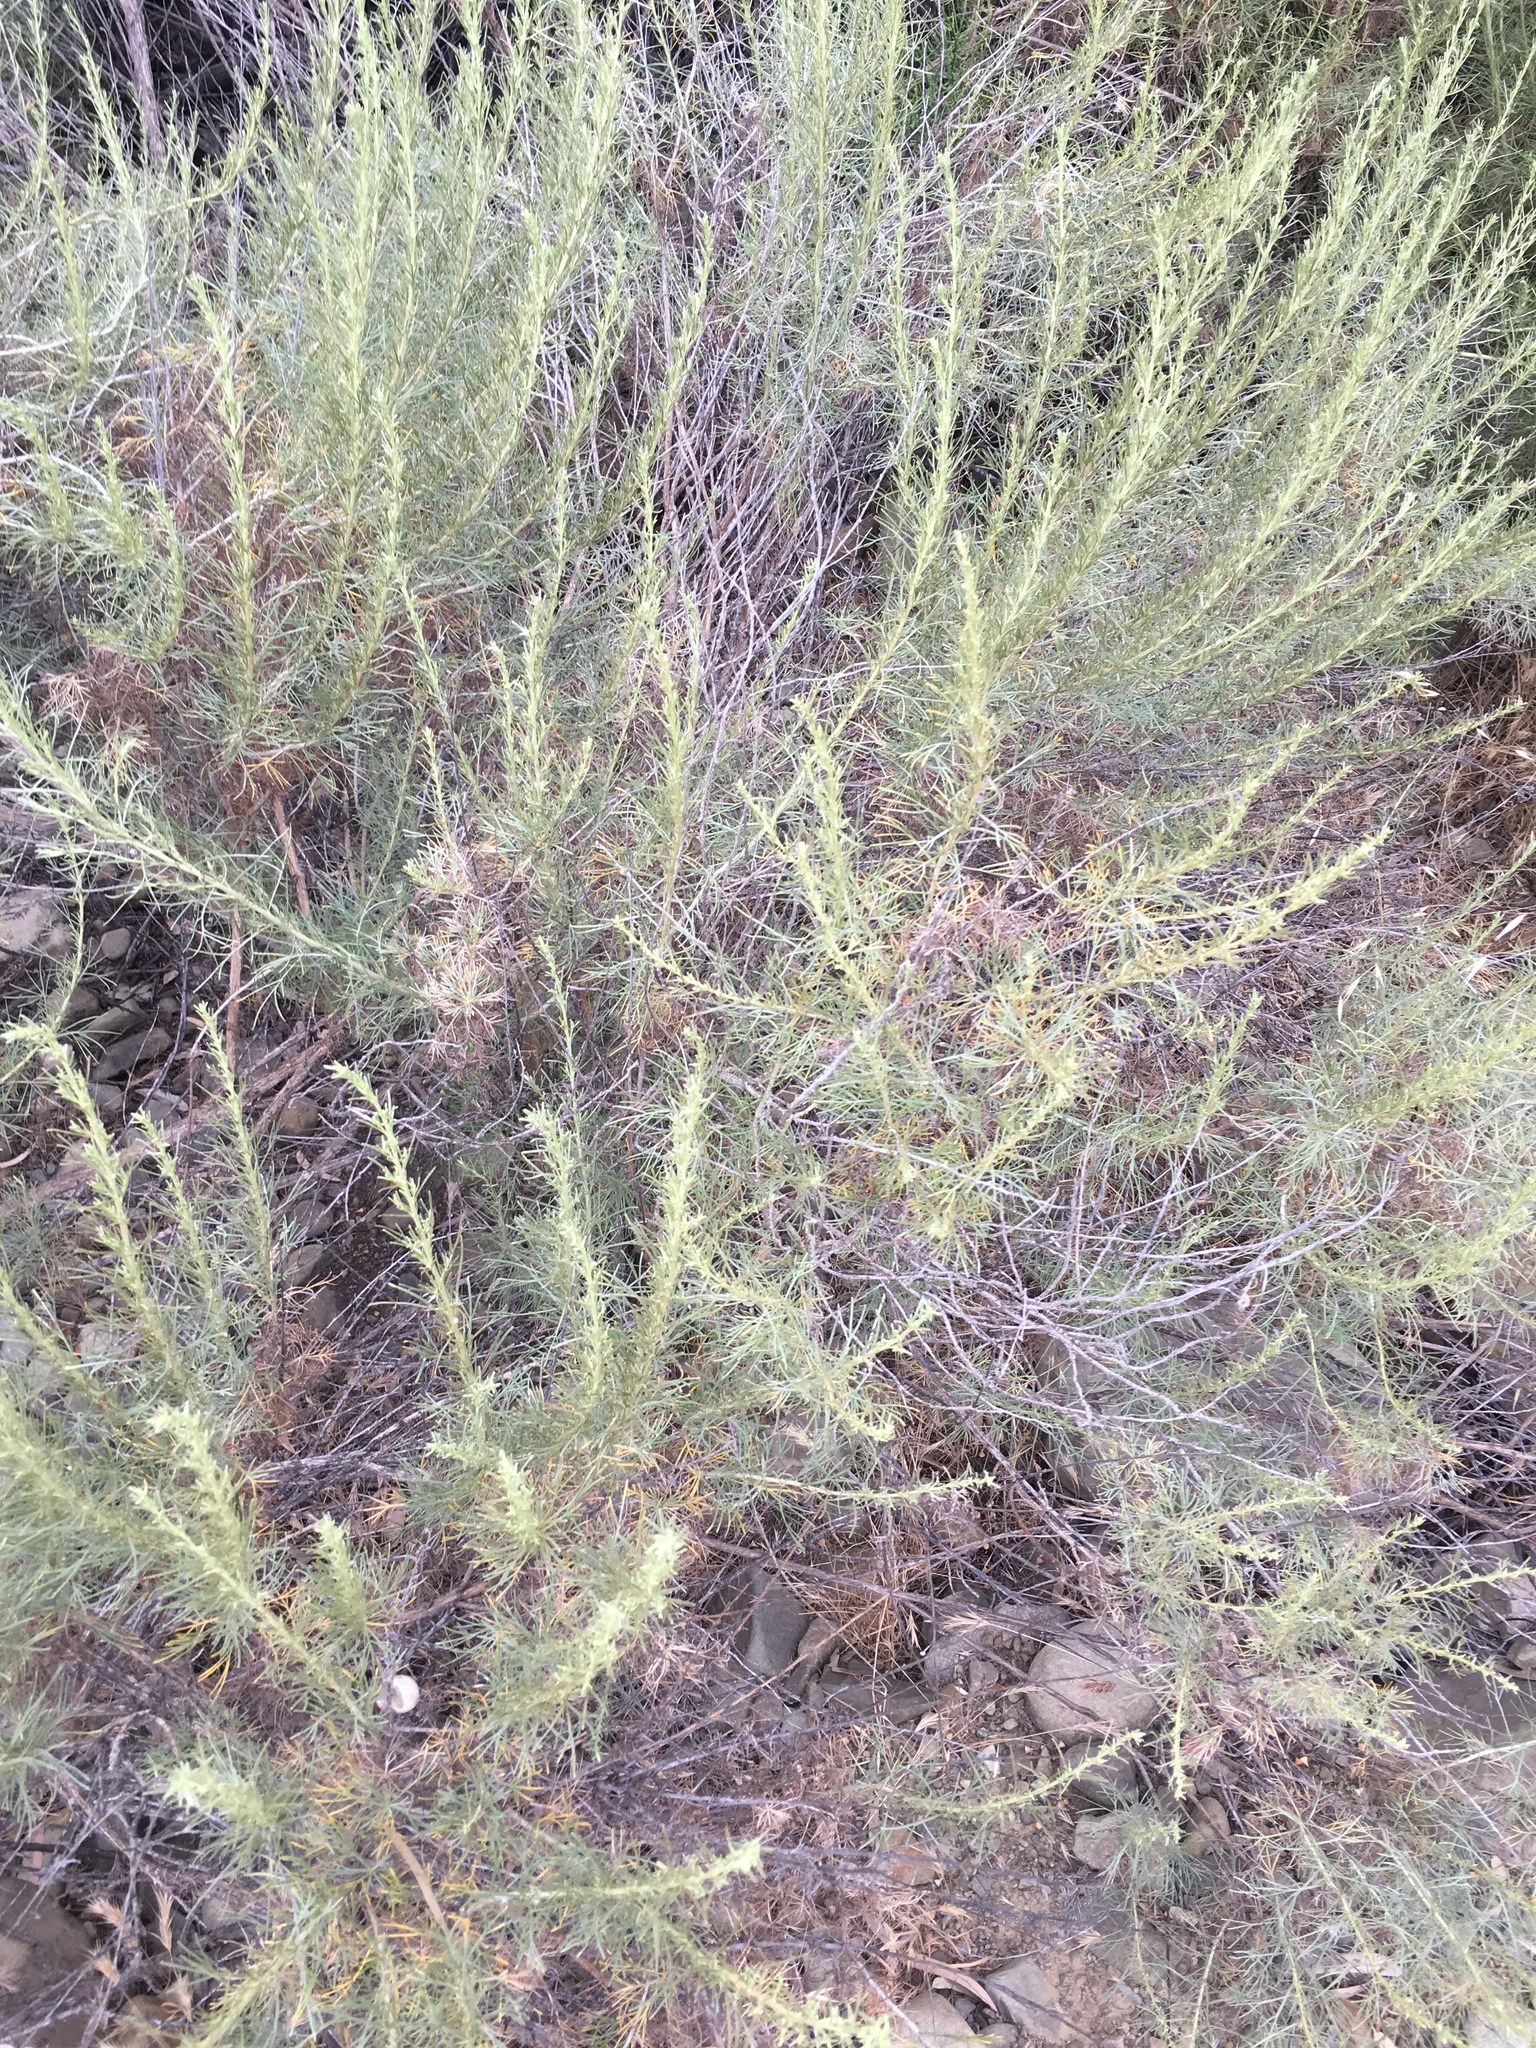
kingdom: Plantae
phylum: Tracheophyta
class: Magnoliopsida
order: Asterales
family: Asteraceae
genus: Artemisia
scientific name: Artemisia californica
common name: California sagebrush
